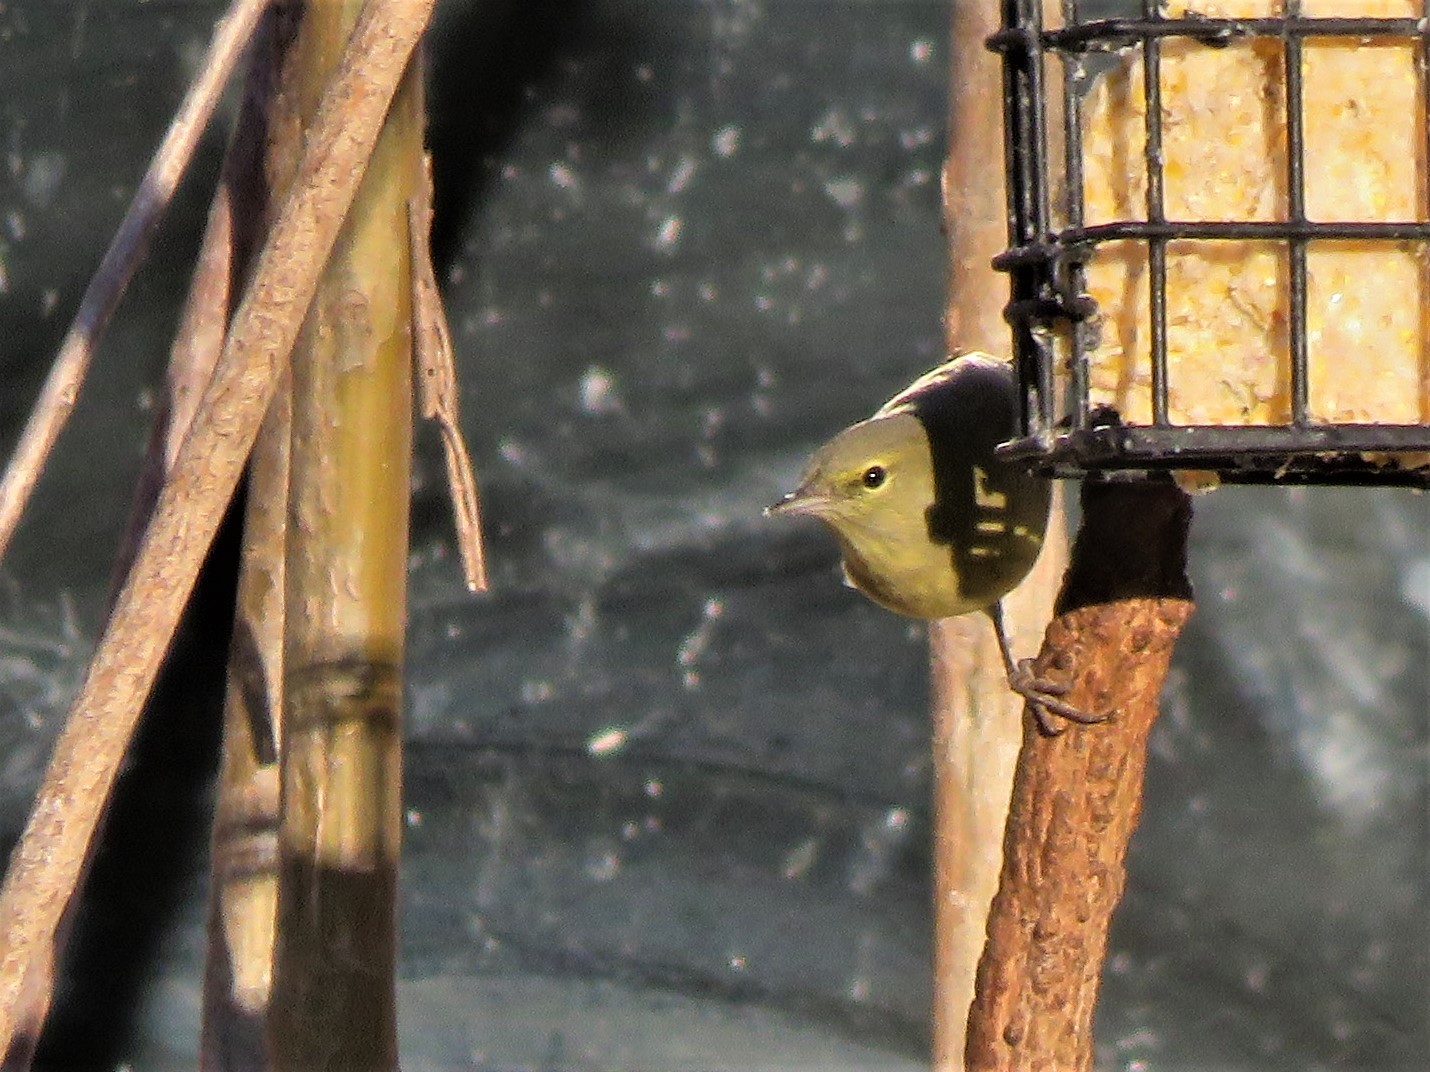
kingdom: Animalia
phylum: Chordata
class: Aves
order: Passeriformes
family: Parulidae
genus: Leiothlypis
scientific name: Leiothlypis celata
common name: Orange-crowned warbler
